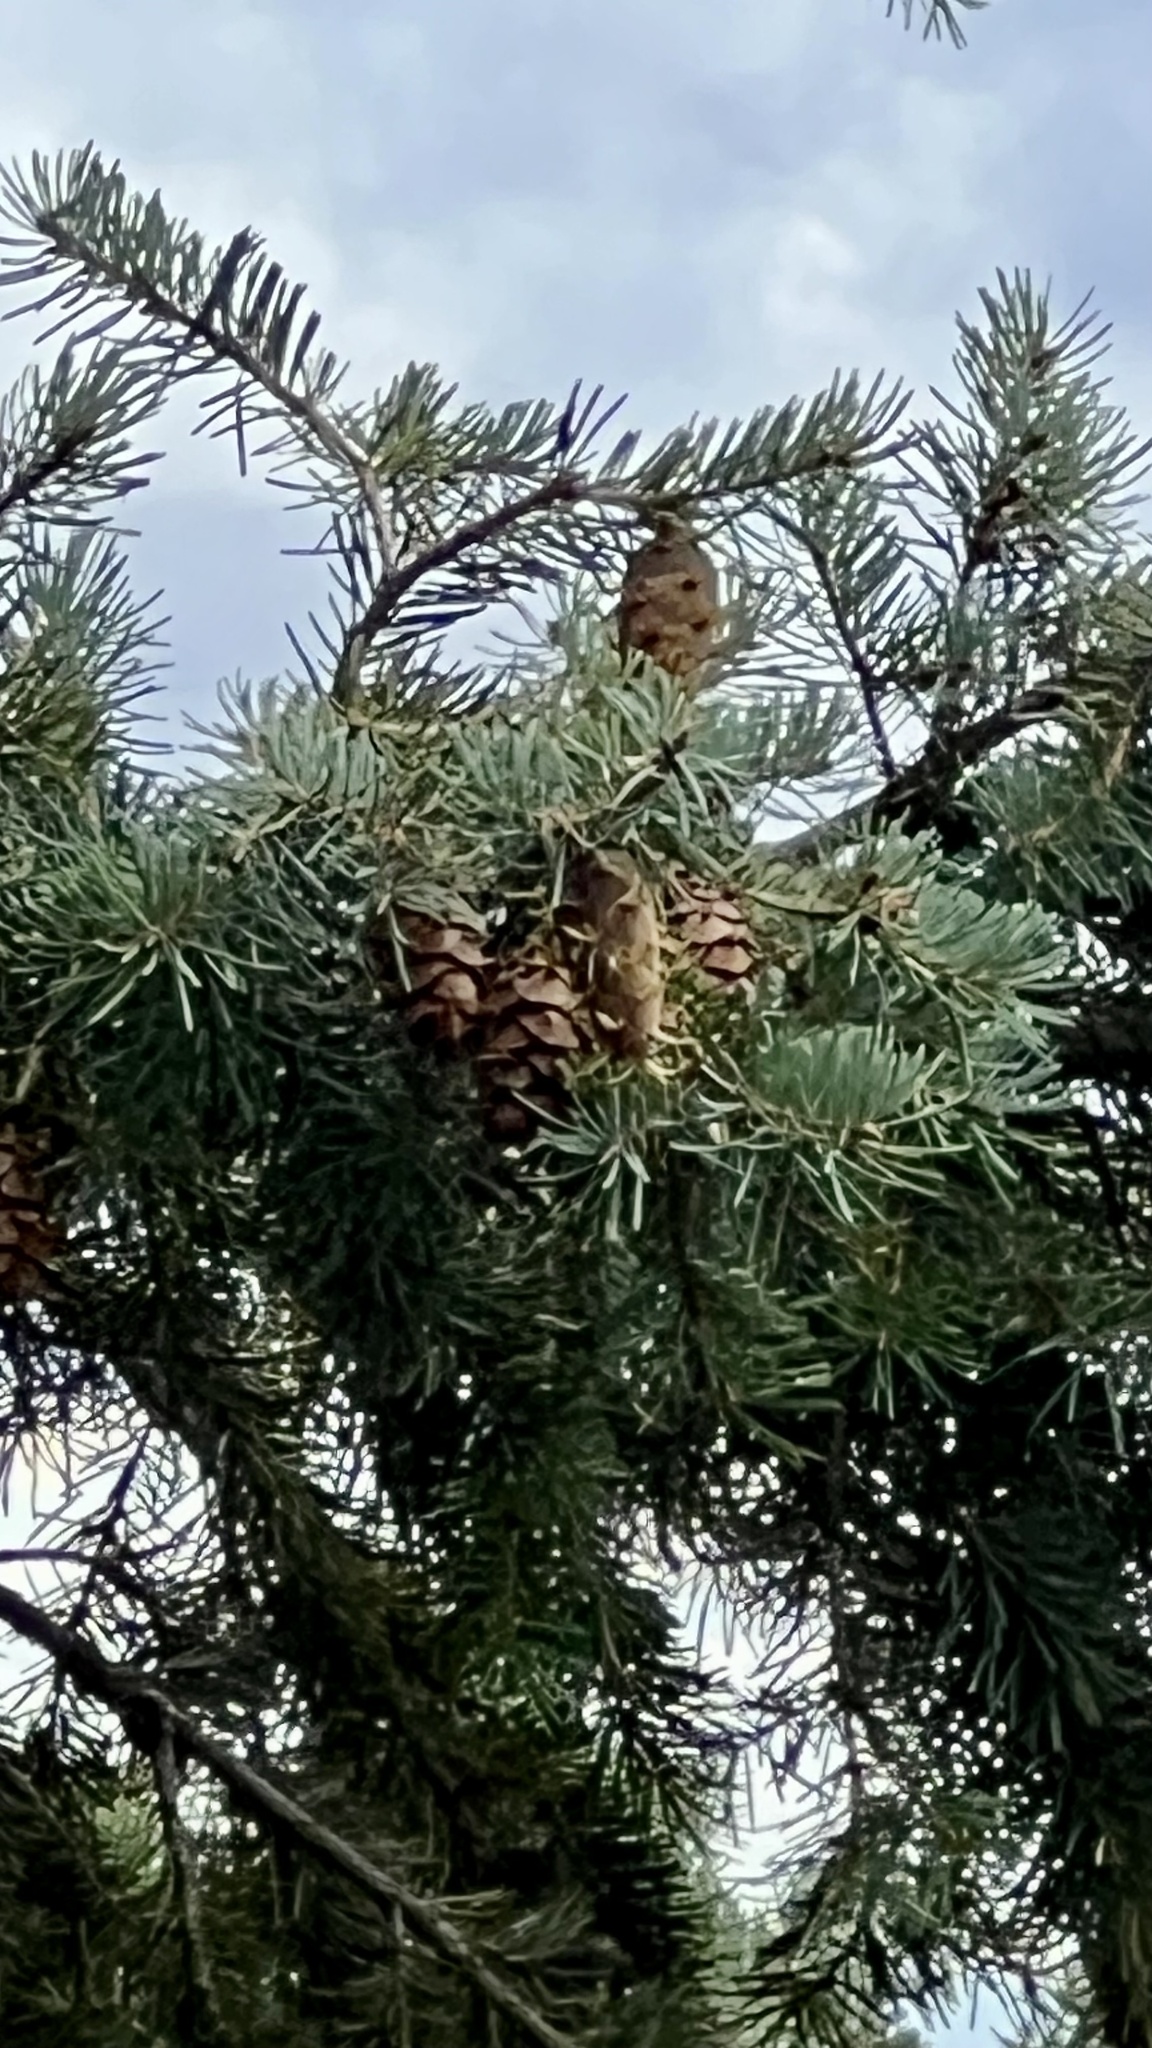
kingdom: Plantae
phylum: Tracheophyta
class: Pinopsida
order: Pinales
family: Pinaceae
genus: Pseudotsuga
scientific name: Pseudotsuga menziesii
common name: Douglas fir
